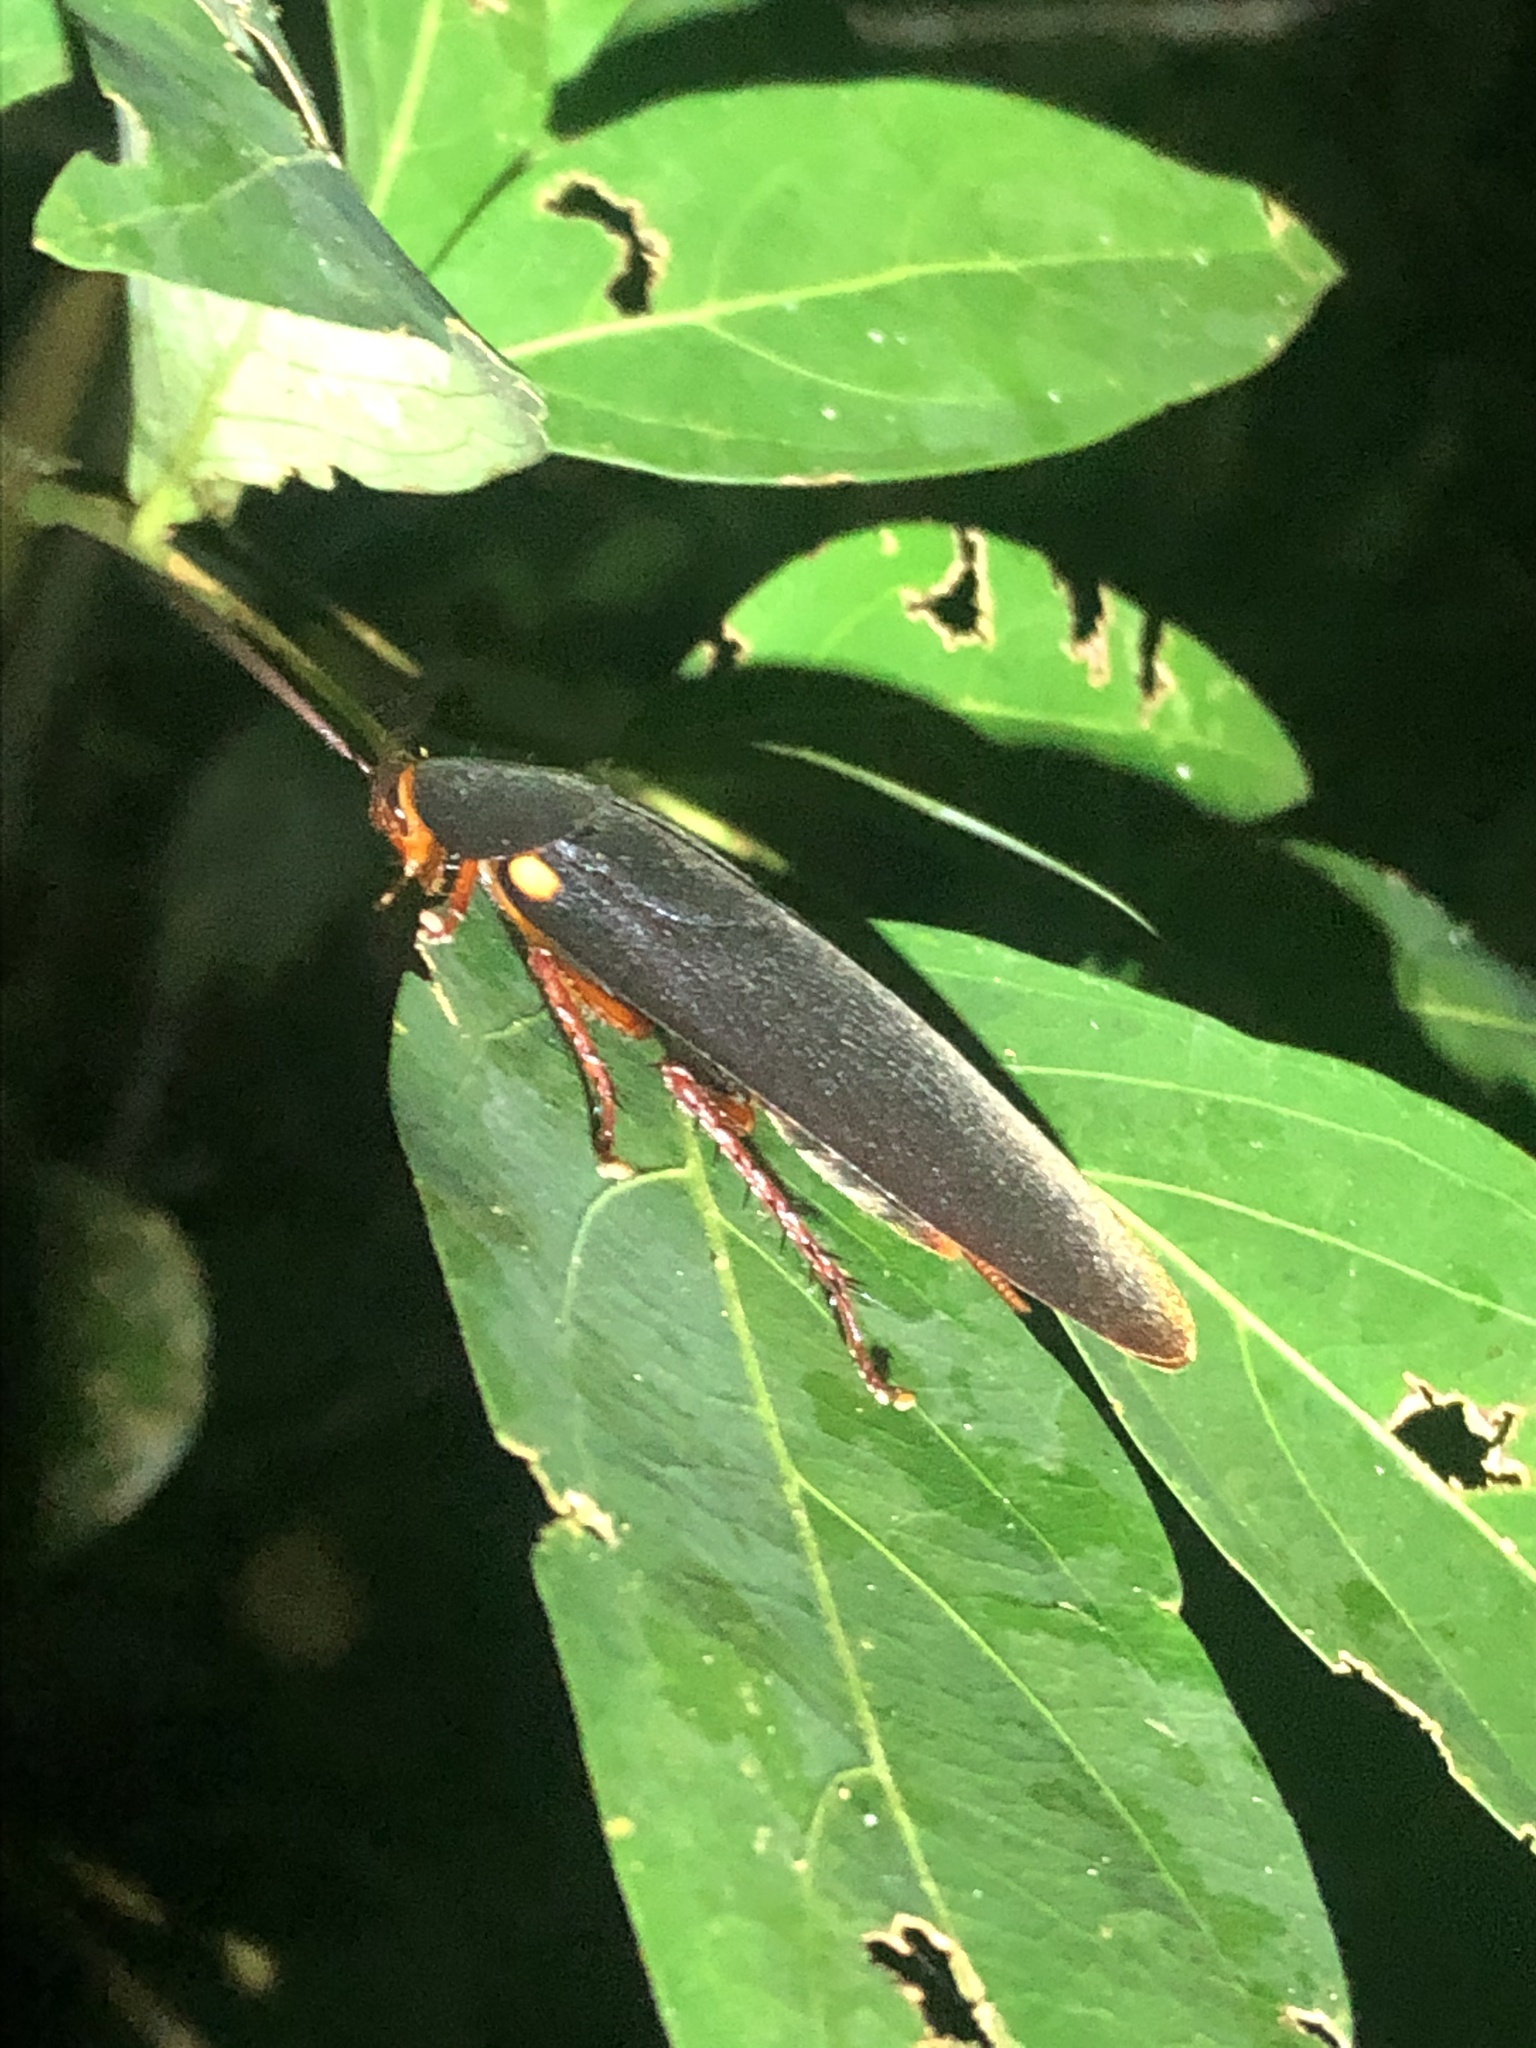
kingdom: Animalia
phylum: Arthropoda
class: Insecta
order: Blattodea
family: Ectobiidae
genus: Nyctibora
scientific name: Nyctibora humeralis
